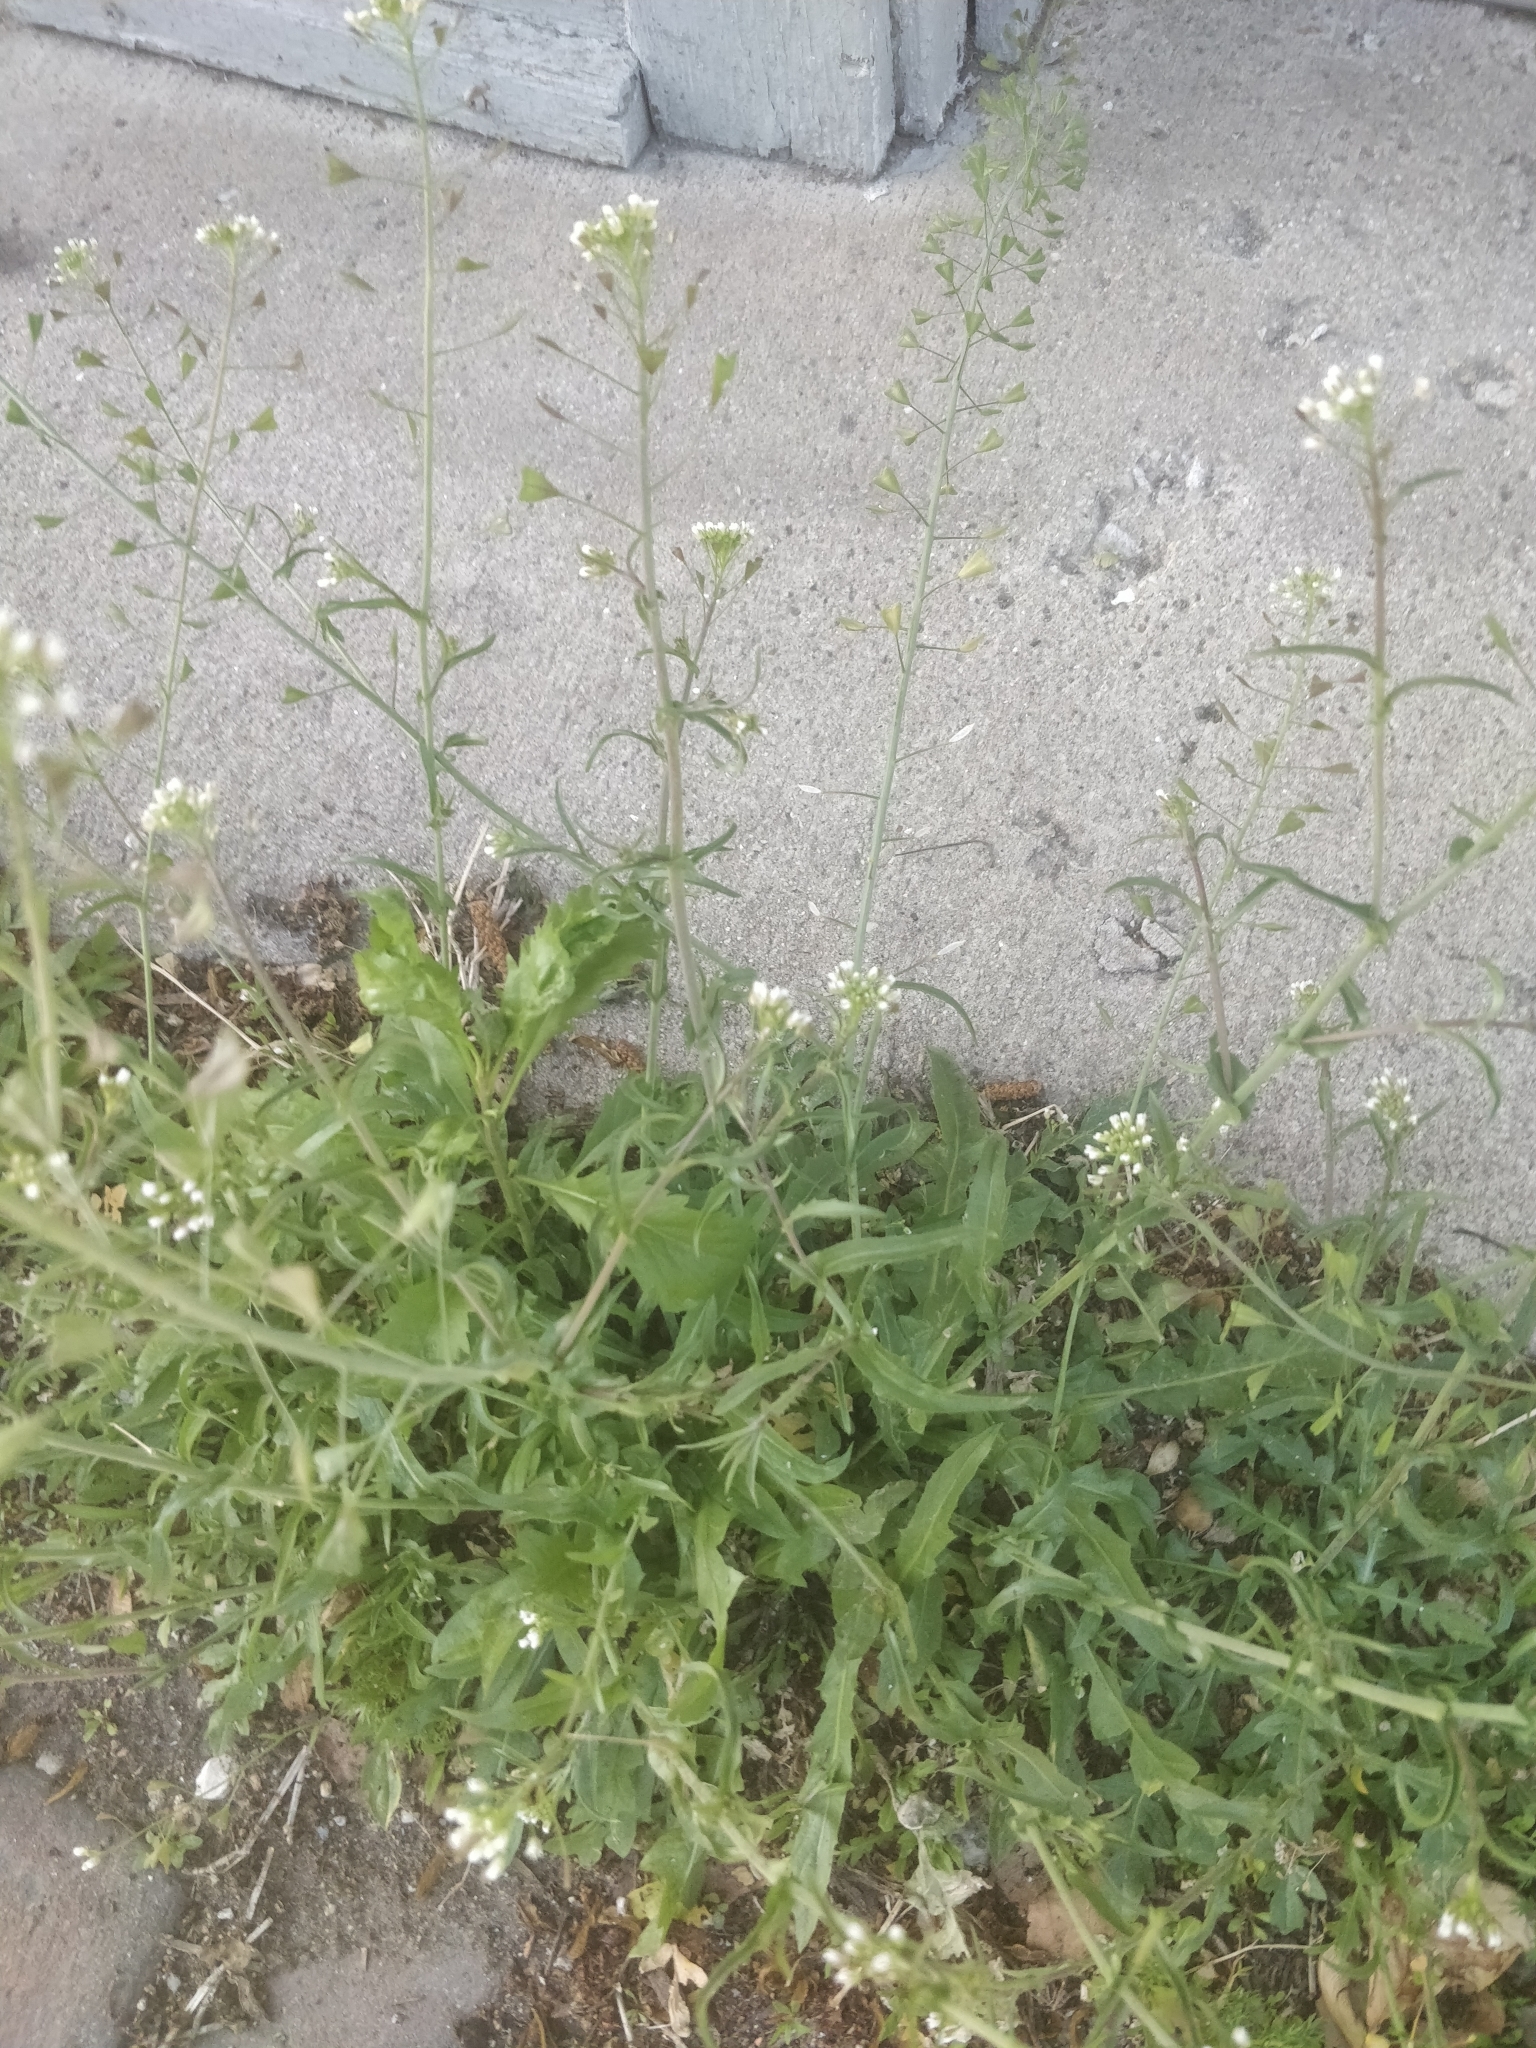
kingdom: Plantae
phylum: Tracheophyta
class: Magnoliopsida
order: Brassicales
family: Brassicaceae
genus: Capsella
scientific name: Capsella bursa-pastoris
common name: Shepherd's purse
